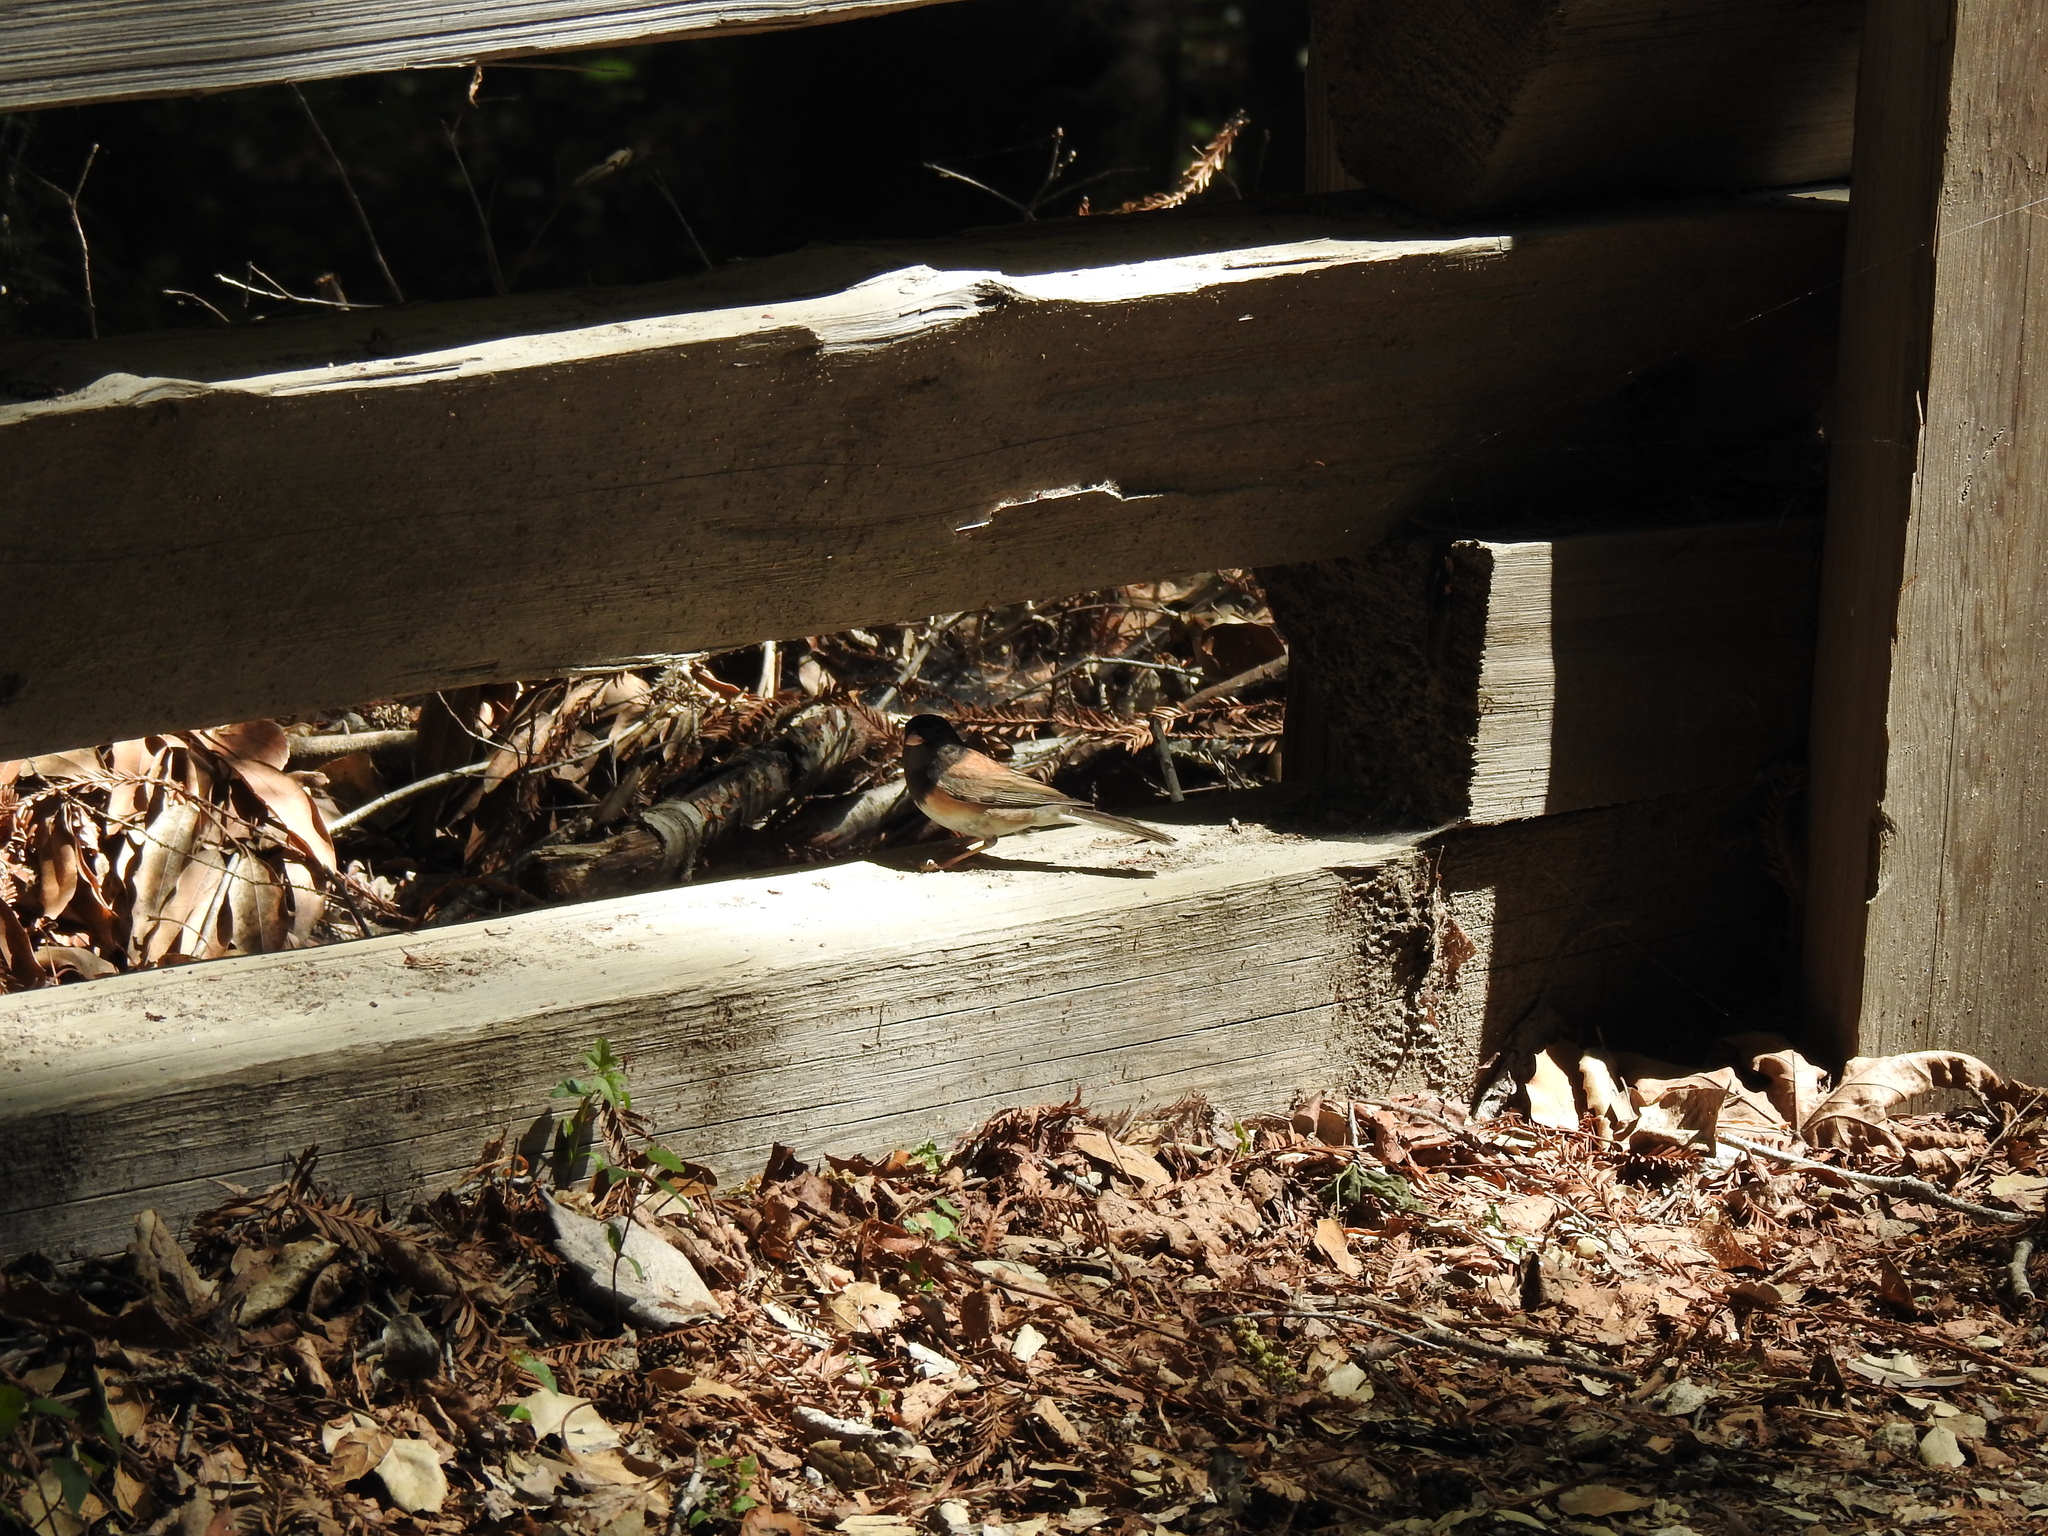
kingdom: Animalia
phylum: Chordata
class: Aves
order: Passeriformes
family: Passerellidae
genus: Junco
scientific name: Junco hyemalis
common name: Dark-eyed junco
